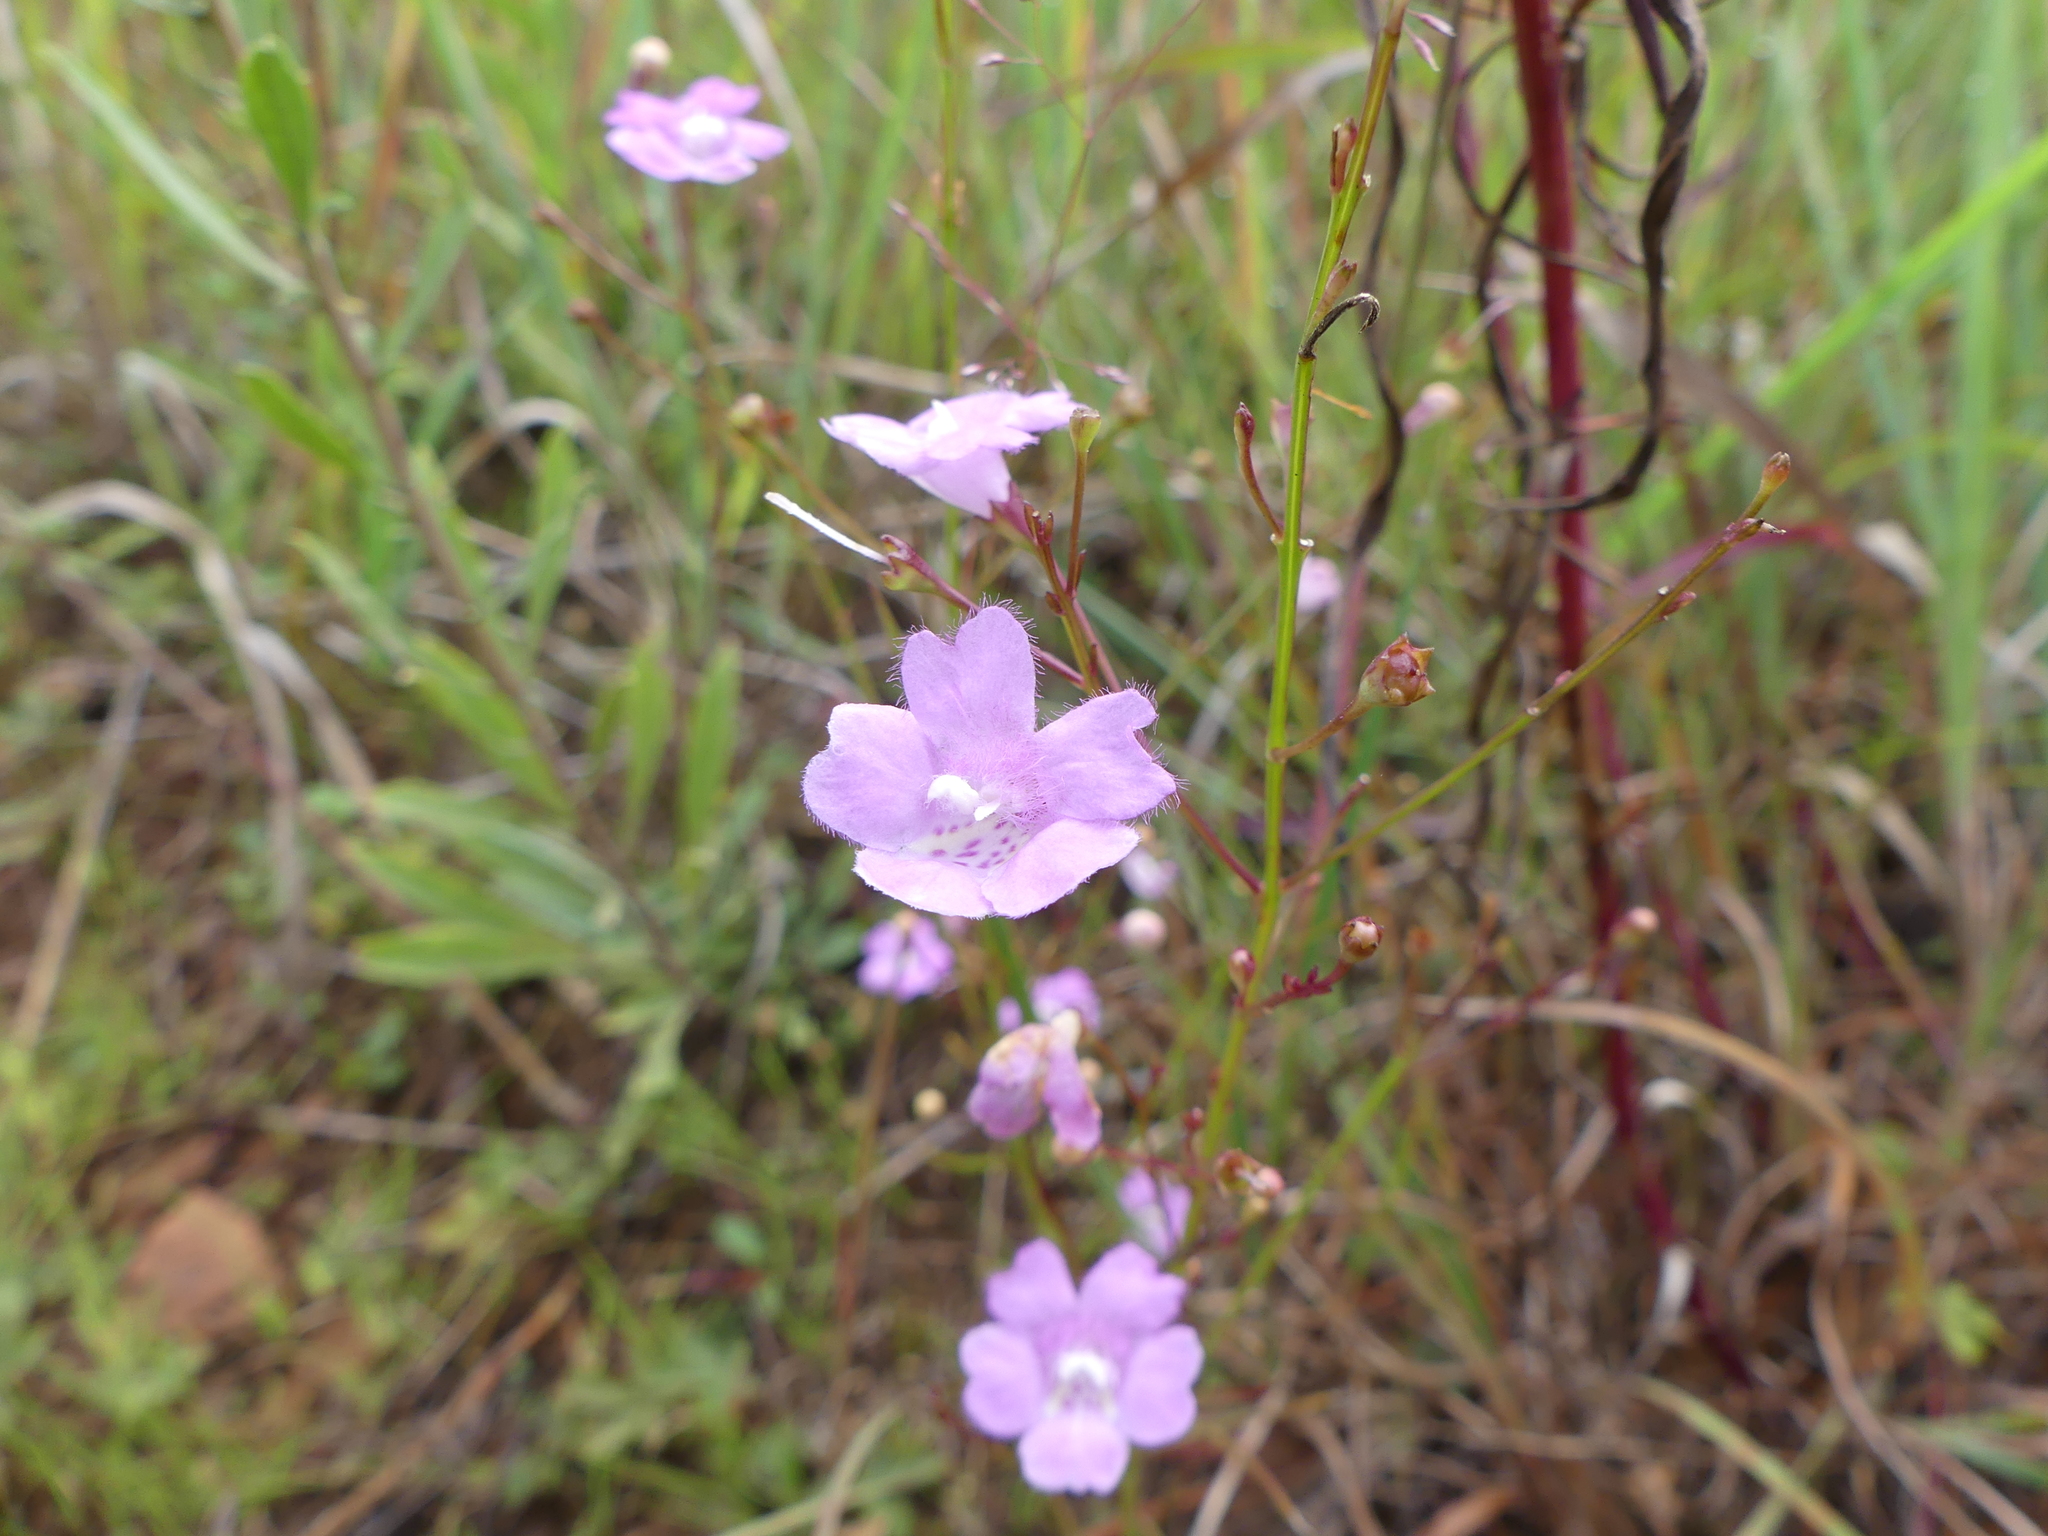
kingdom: Plantae
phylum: Tracheophyta
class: Magnoliopsida
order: Lamiales
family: Orobanchaceae
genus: Agalinis
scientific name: Agalinis decemloba
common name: Ten-lobed false foxglove
